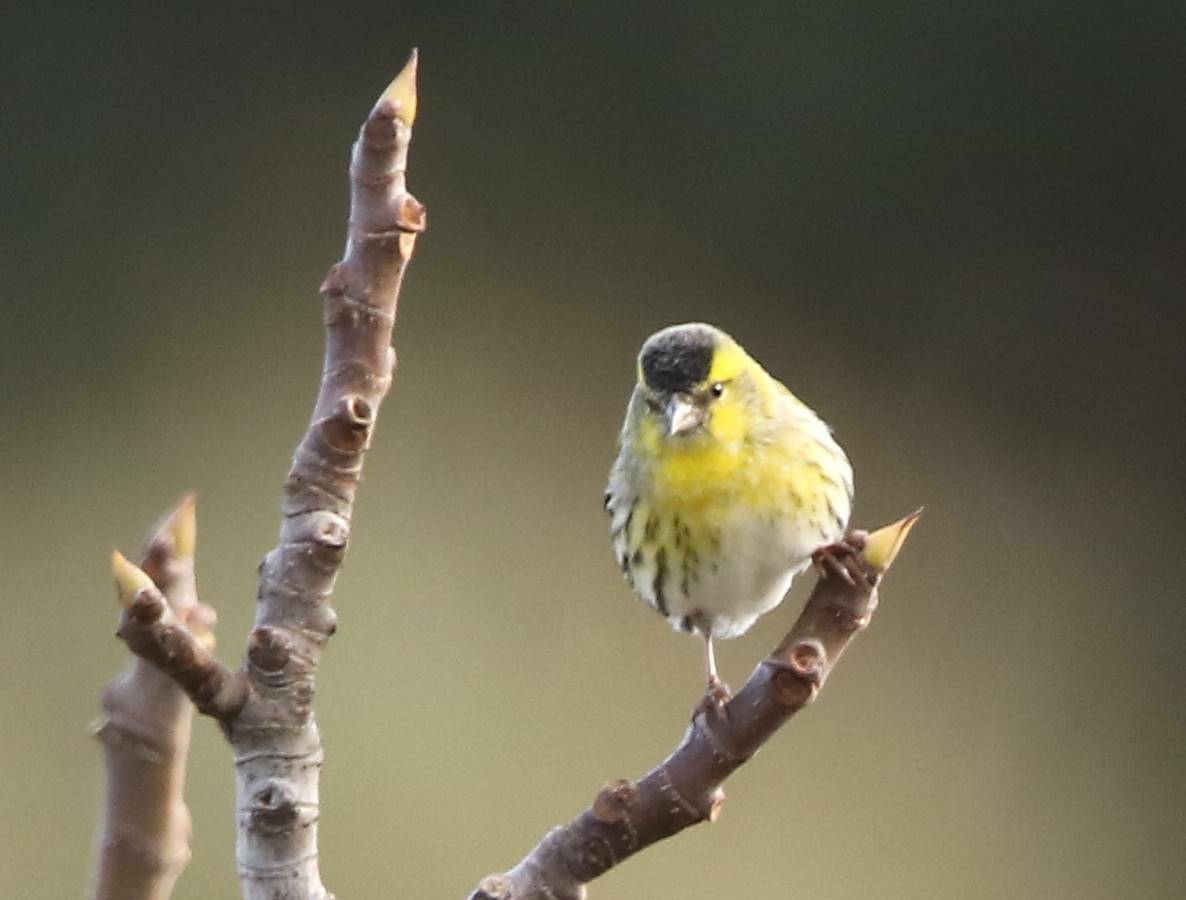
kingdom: Animalia
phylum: Chordata
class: Aves
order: Passeriformes
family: Fringillidae
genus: Spinus
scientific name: Spinus spinus
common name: Eurasian siskin
